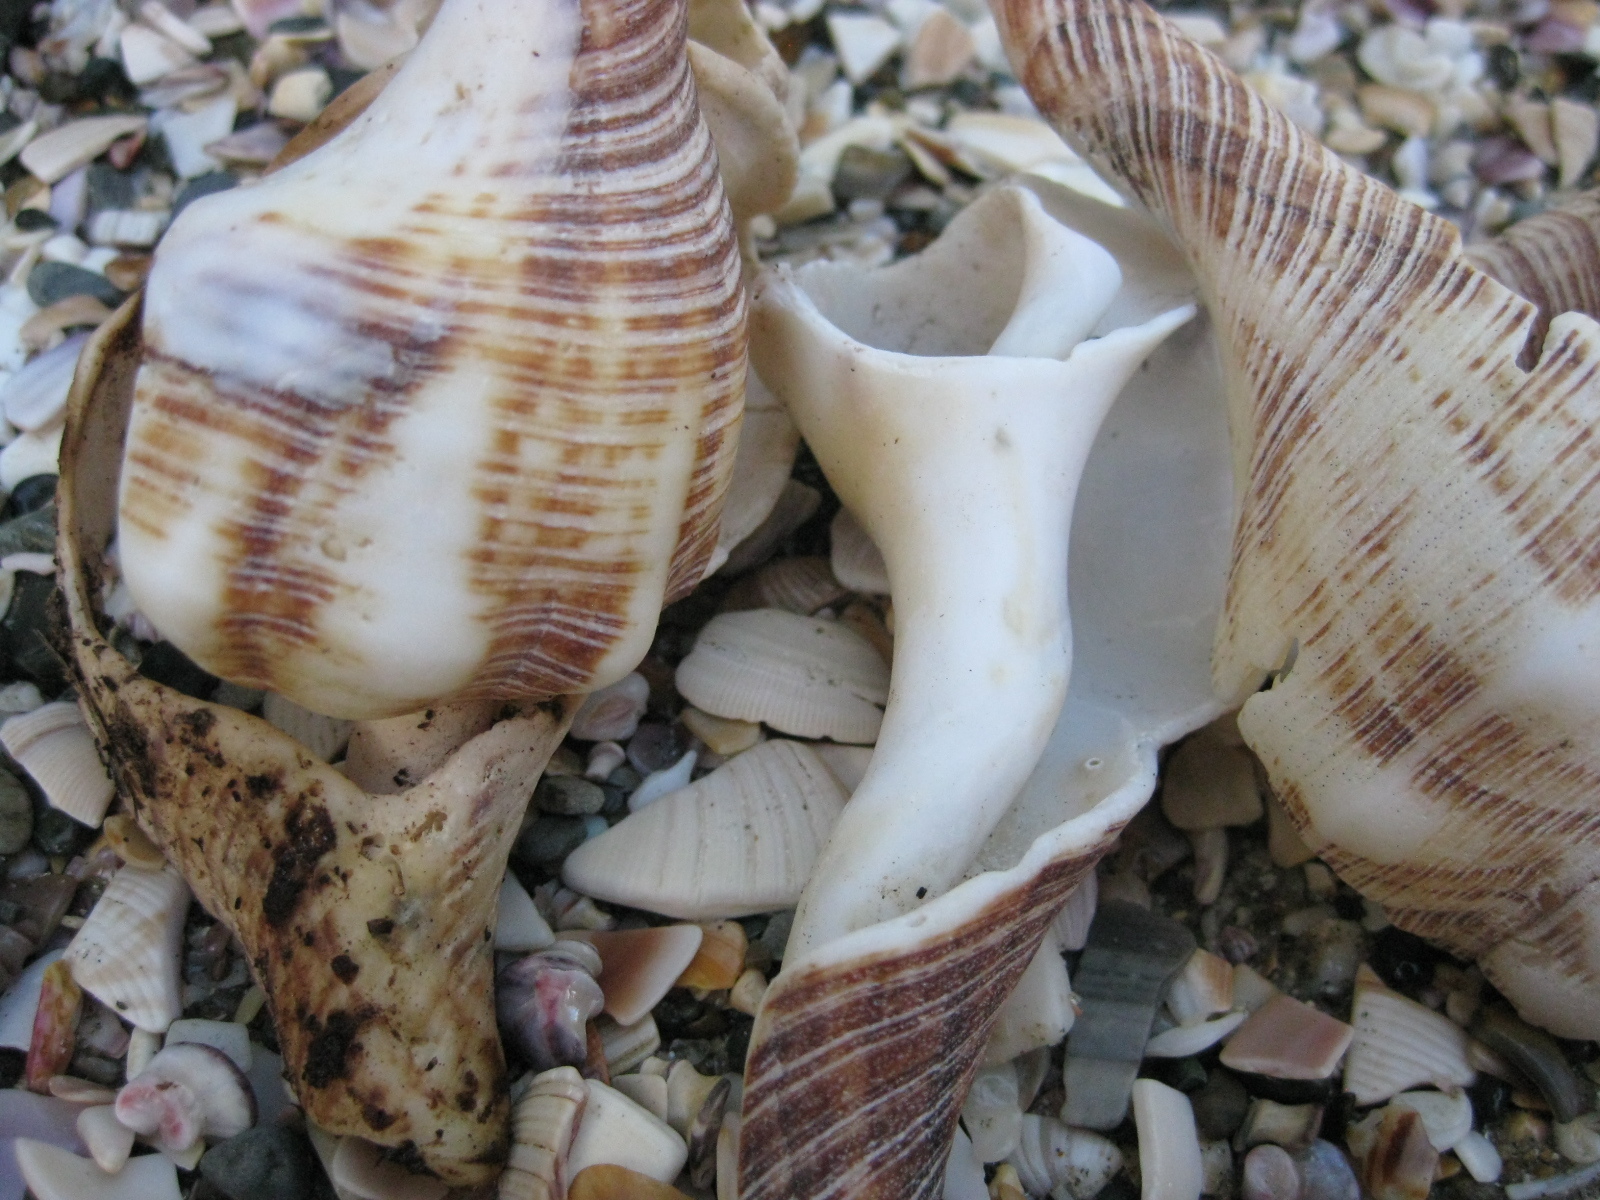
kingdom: Animalia
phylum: Mollusca
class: Gastropoda
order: Neogastropoda
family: Austrosiphonidae
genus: Penion
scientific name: Penion sulcatus
